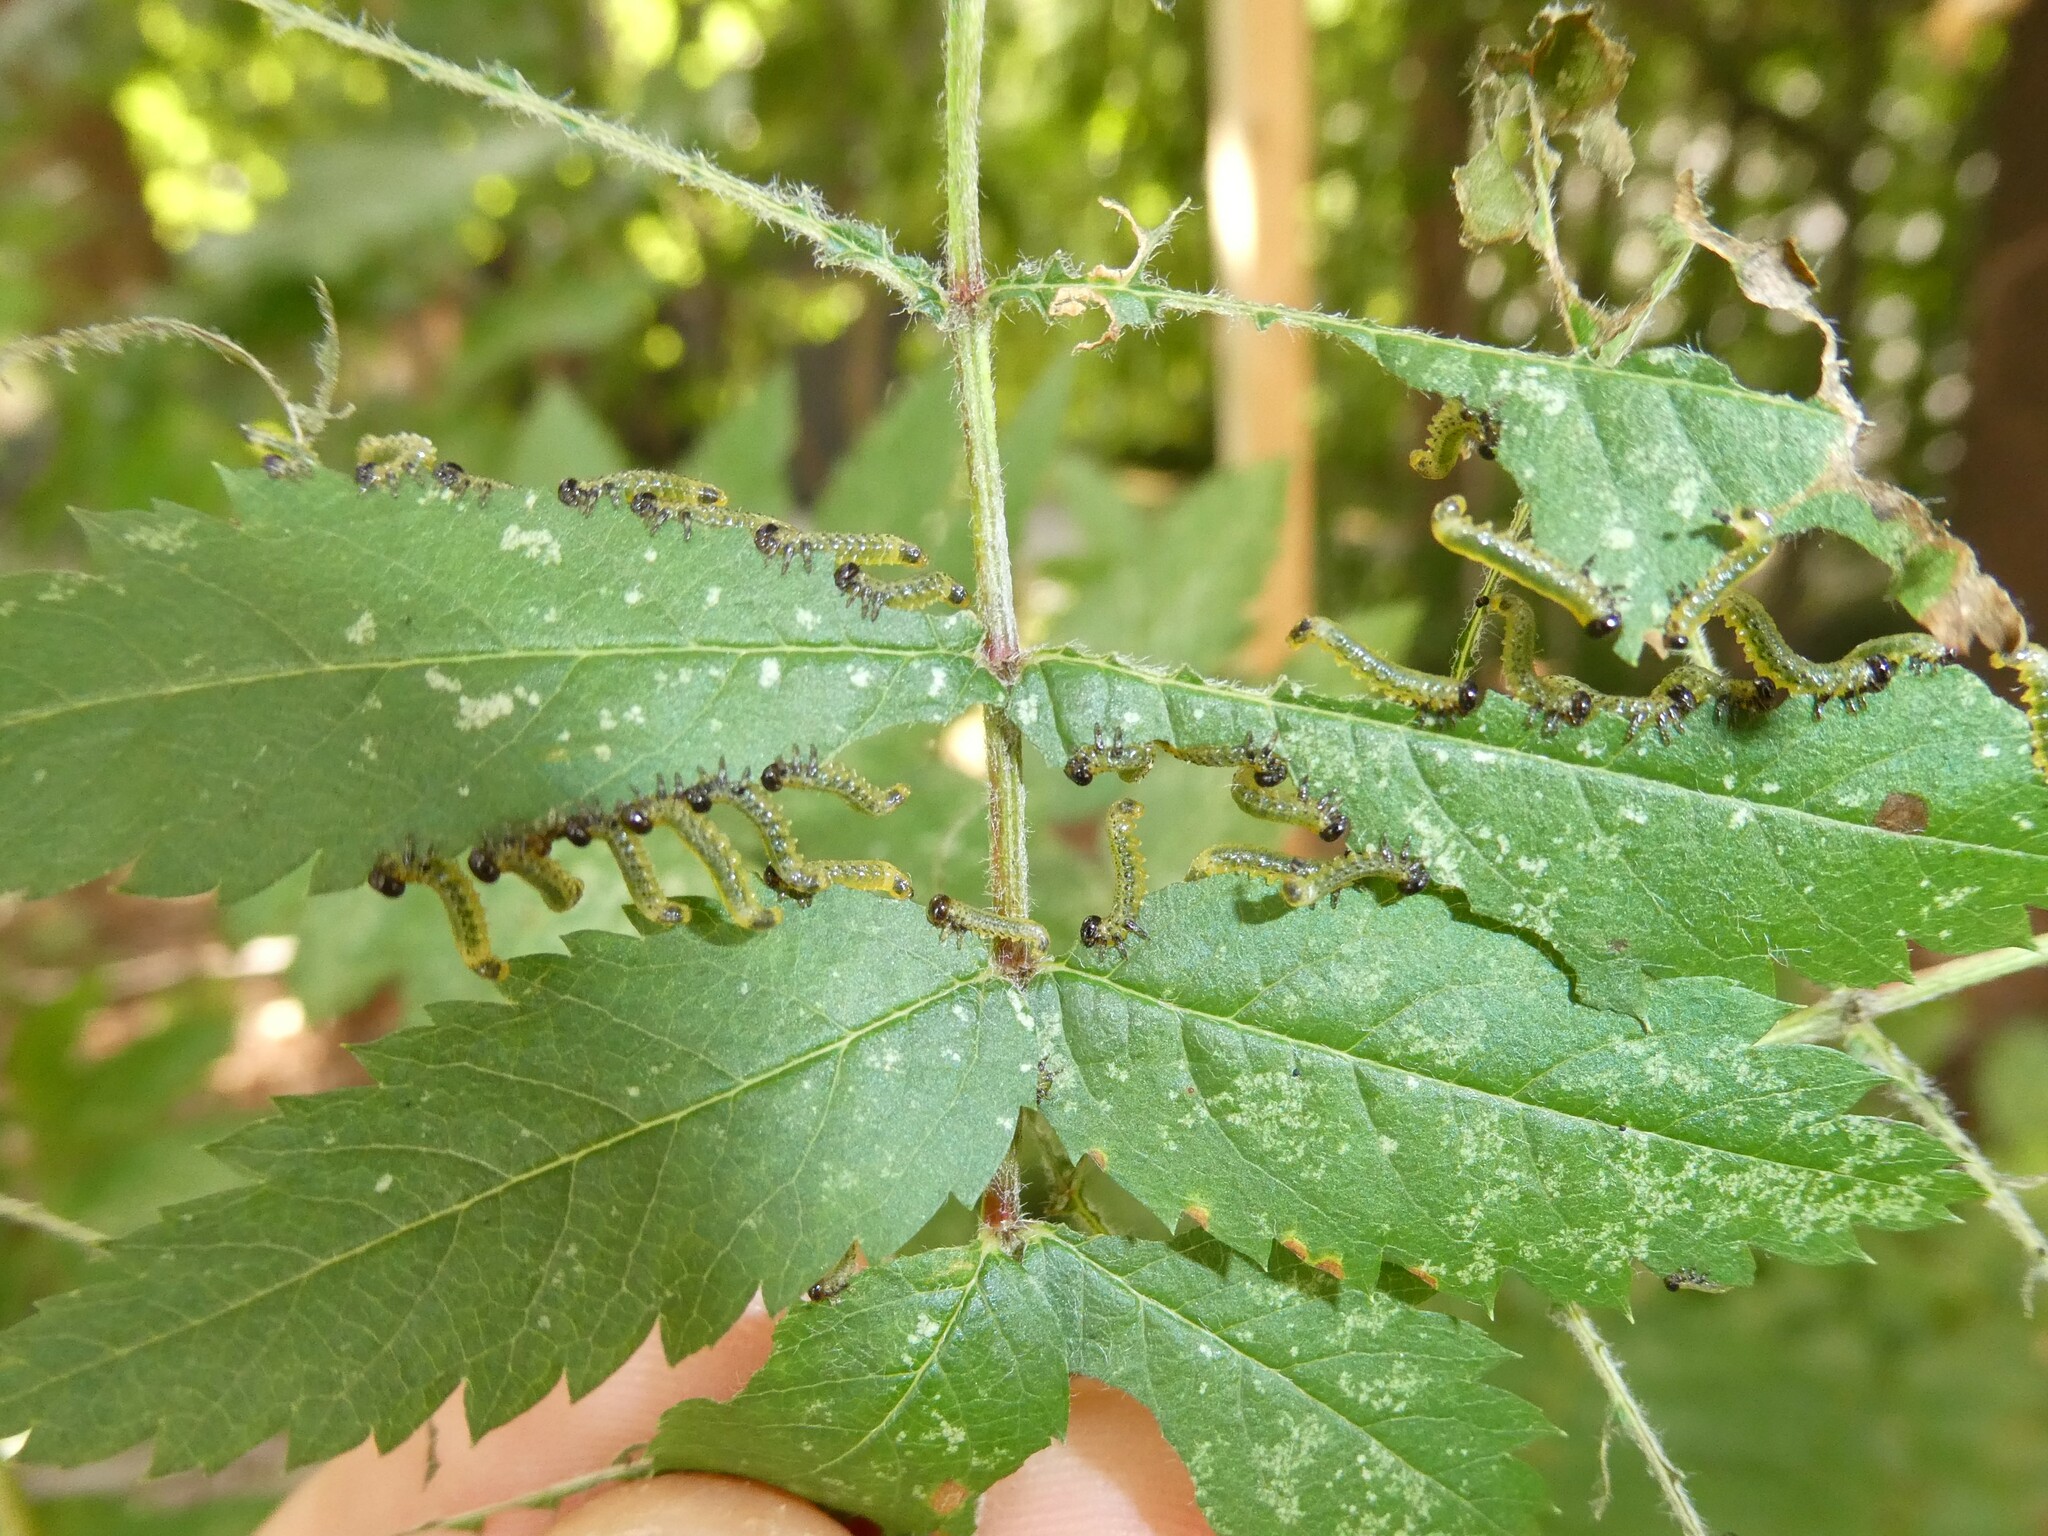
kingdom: Animalia
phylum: Arthropoda
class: Insecta
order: Hymenoptera
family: Tenthredinidae
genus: Pristiphora
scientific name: Pristiphora geniculata
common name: Mountain-ash sawfly
